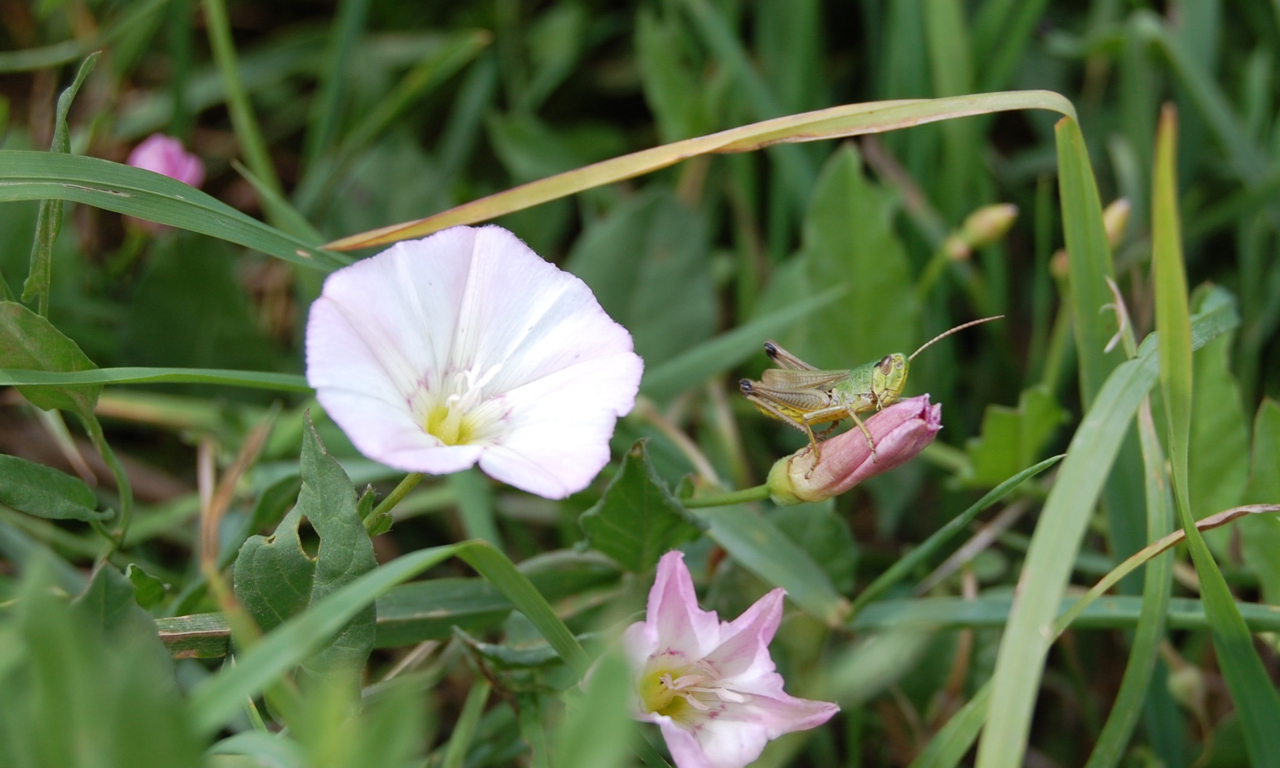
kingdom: Plantae
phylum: Tracheophyta
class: Magnoliopsida
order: Solanales
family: Convolvulaceae
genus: Convolvulus
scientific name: Convolvulus arvensis
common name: Field bindweed
